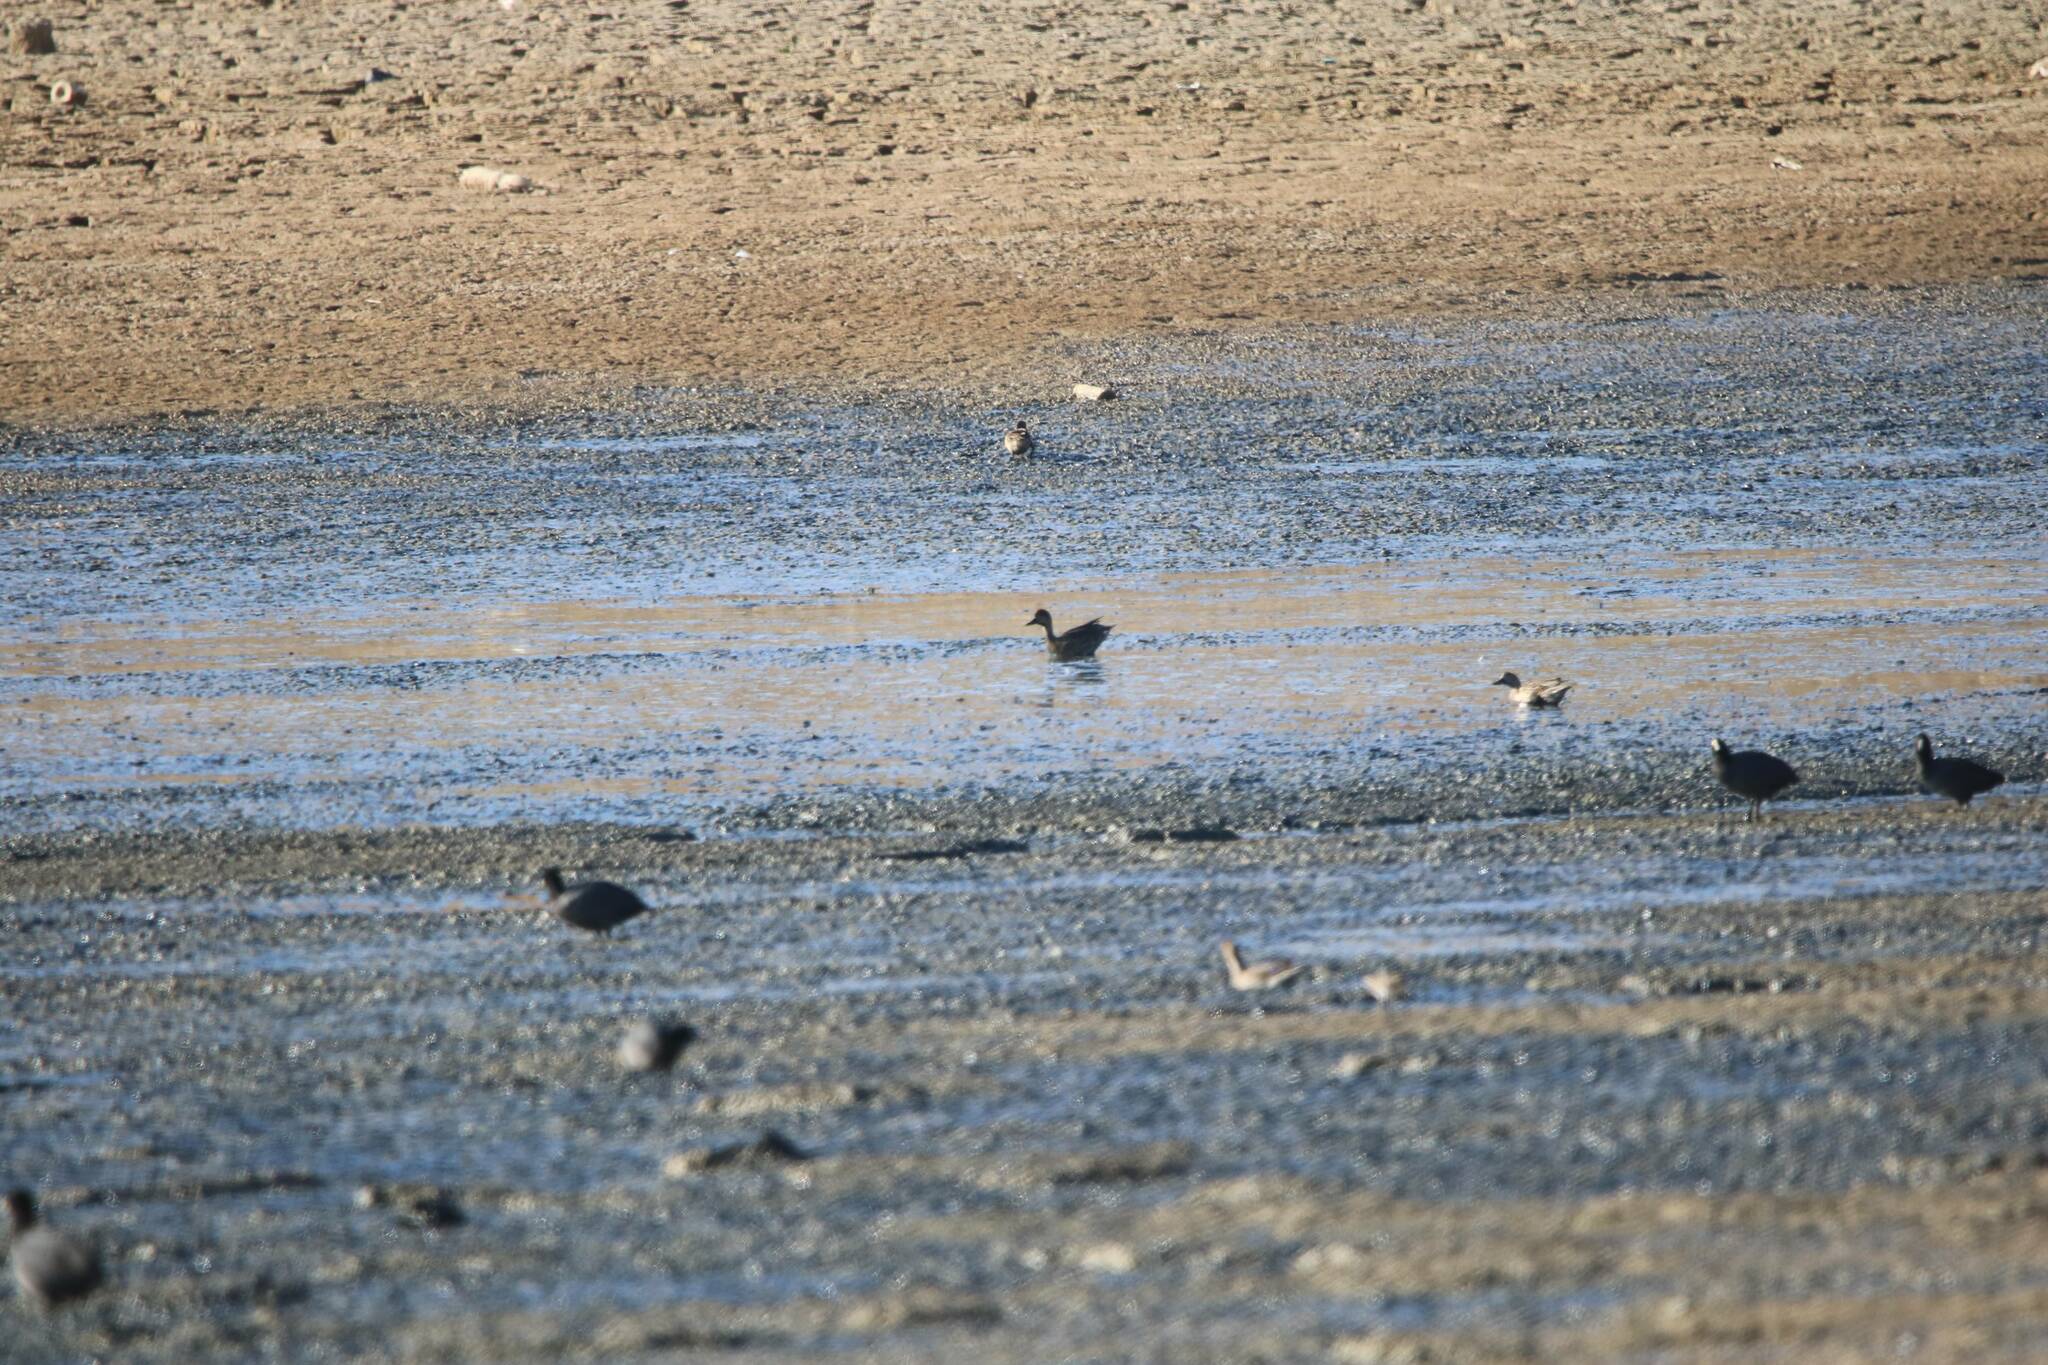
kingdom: Animalia
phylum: Chordata
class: Aves
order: Anseriformes
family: Anatidae
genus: Anas
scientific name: Anas crecca
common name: Eurasian teal
